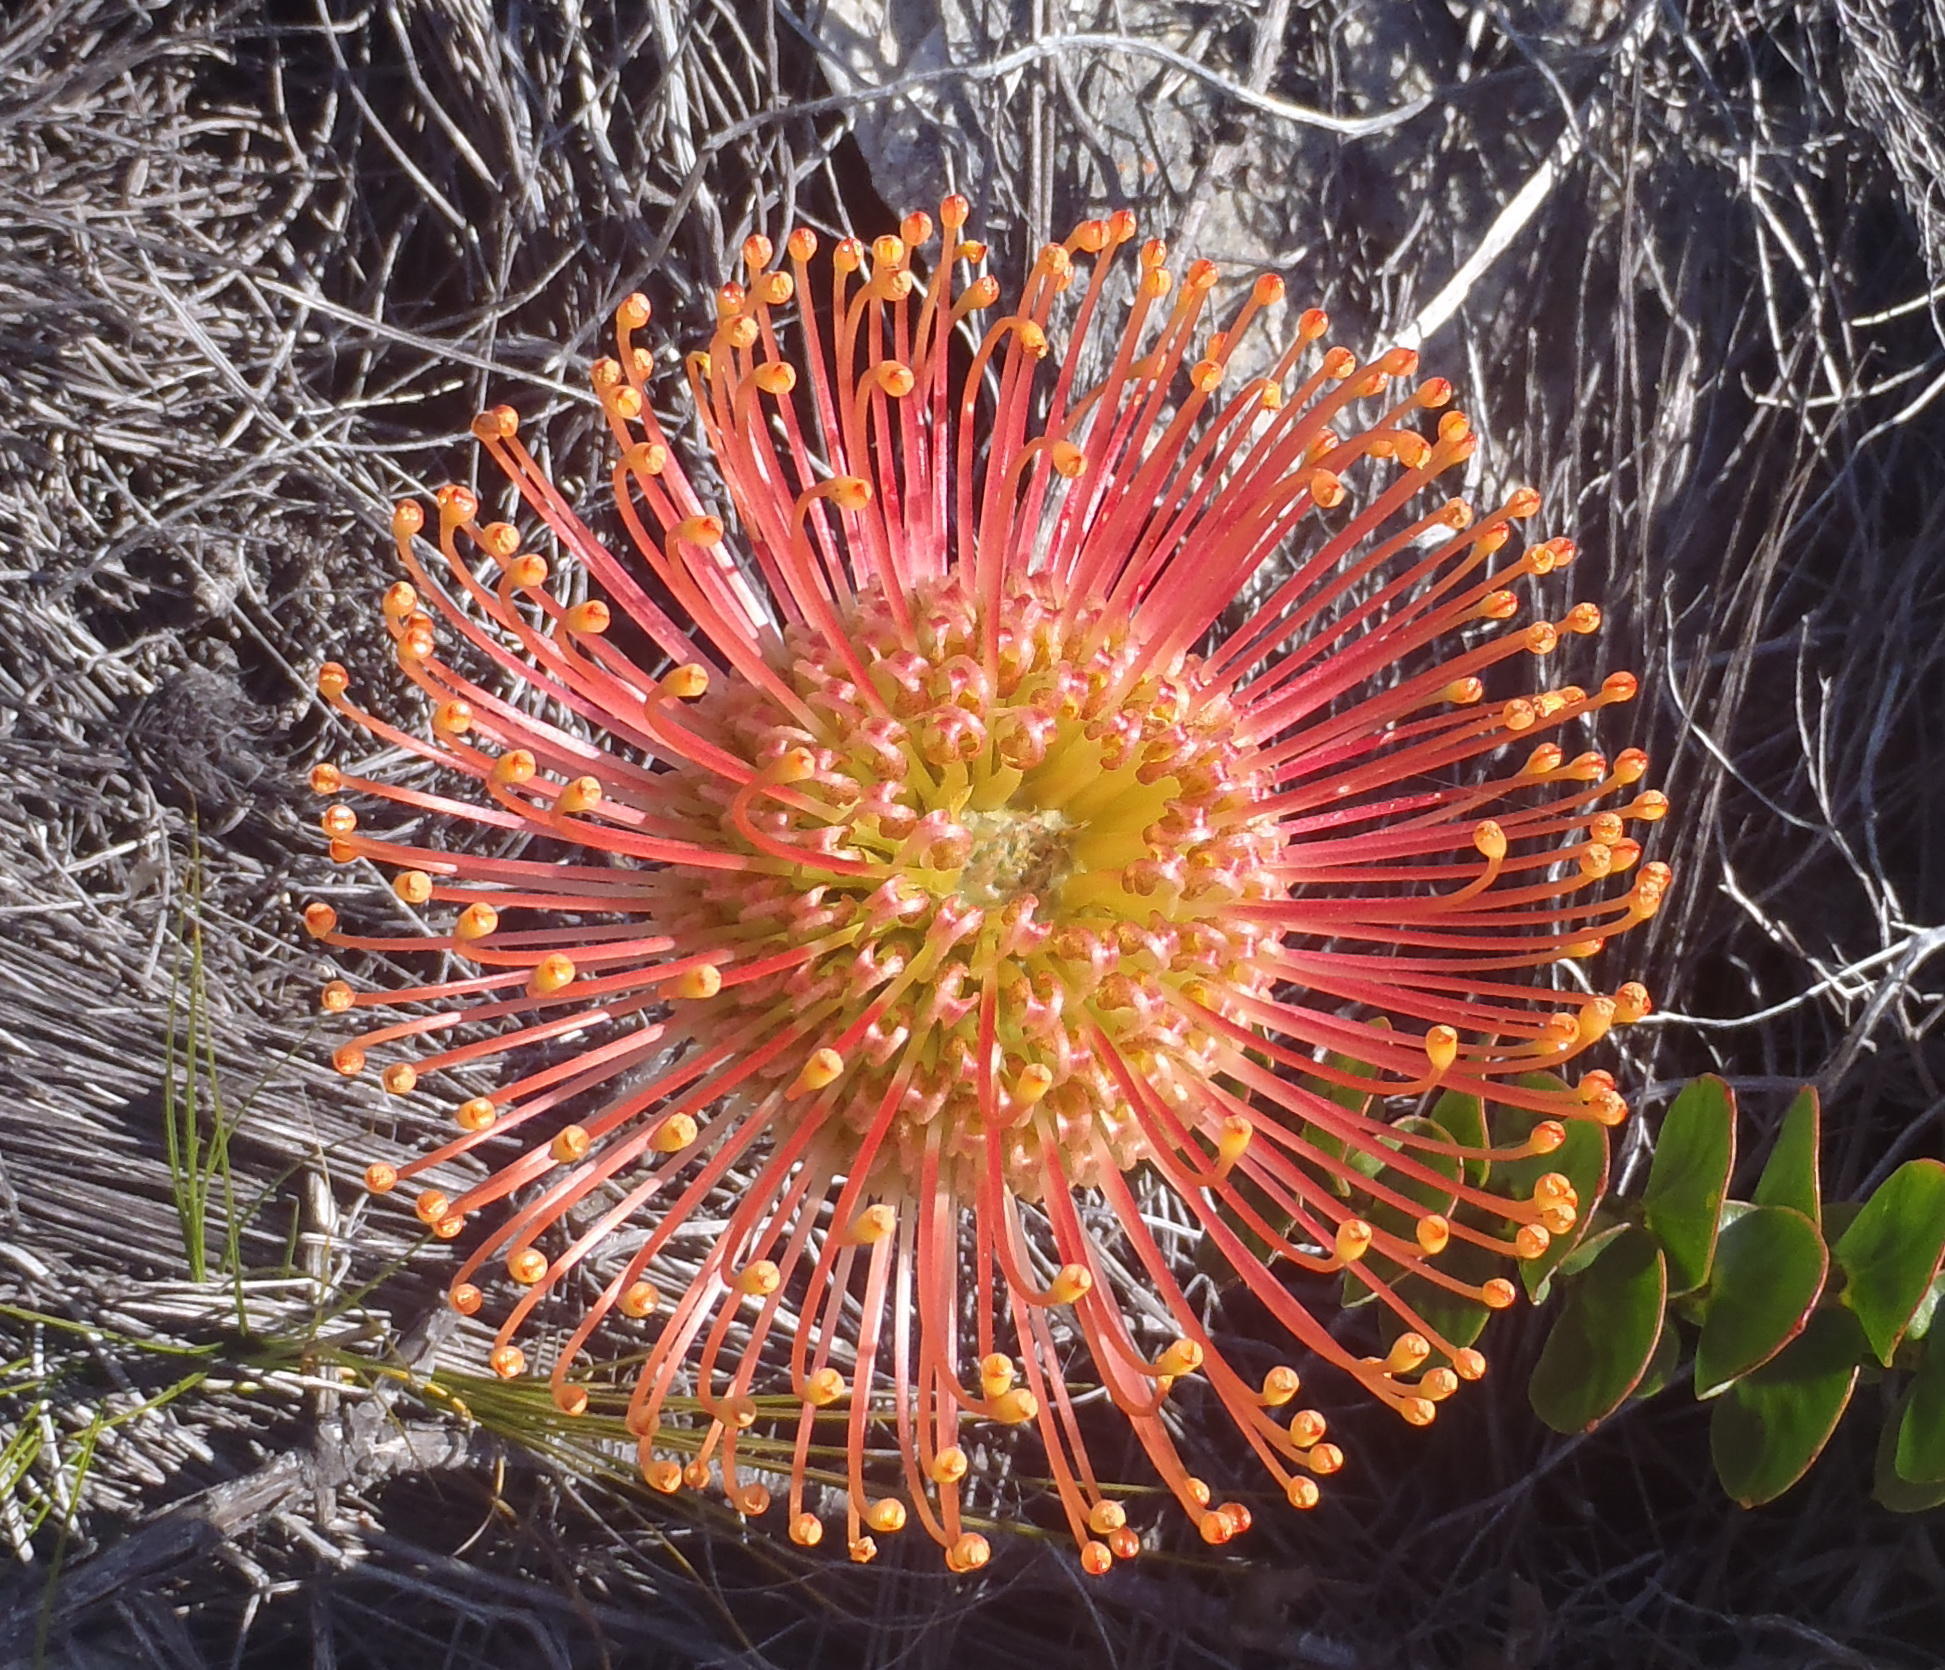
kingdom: Plantae
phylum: Tracheophyta
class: Magnoliopsida
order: Proteales
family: Proteaceae
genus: Leucospermum
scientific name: Leucospermum cordifolium
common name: Red pincushion-protea
